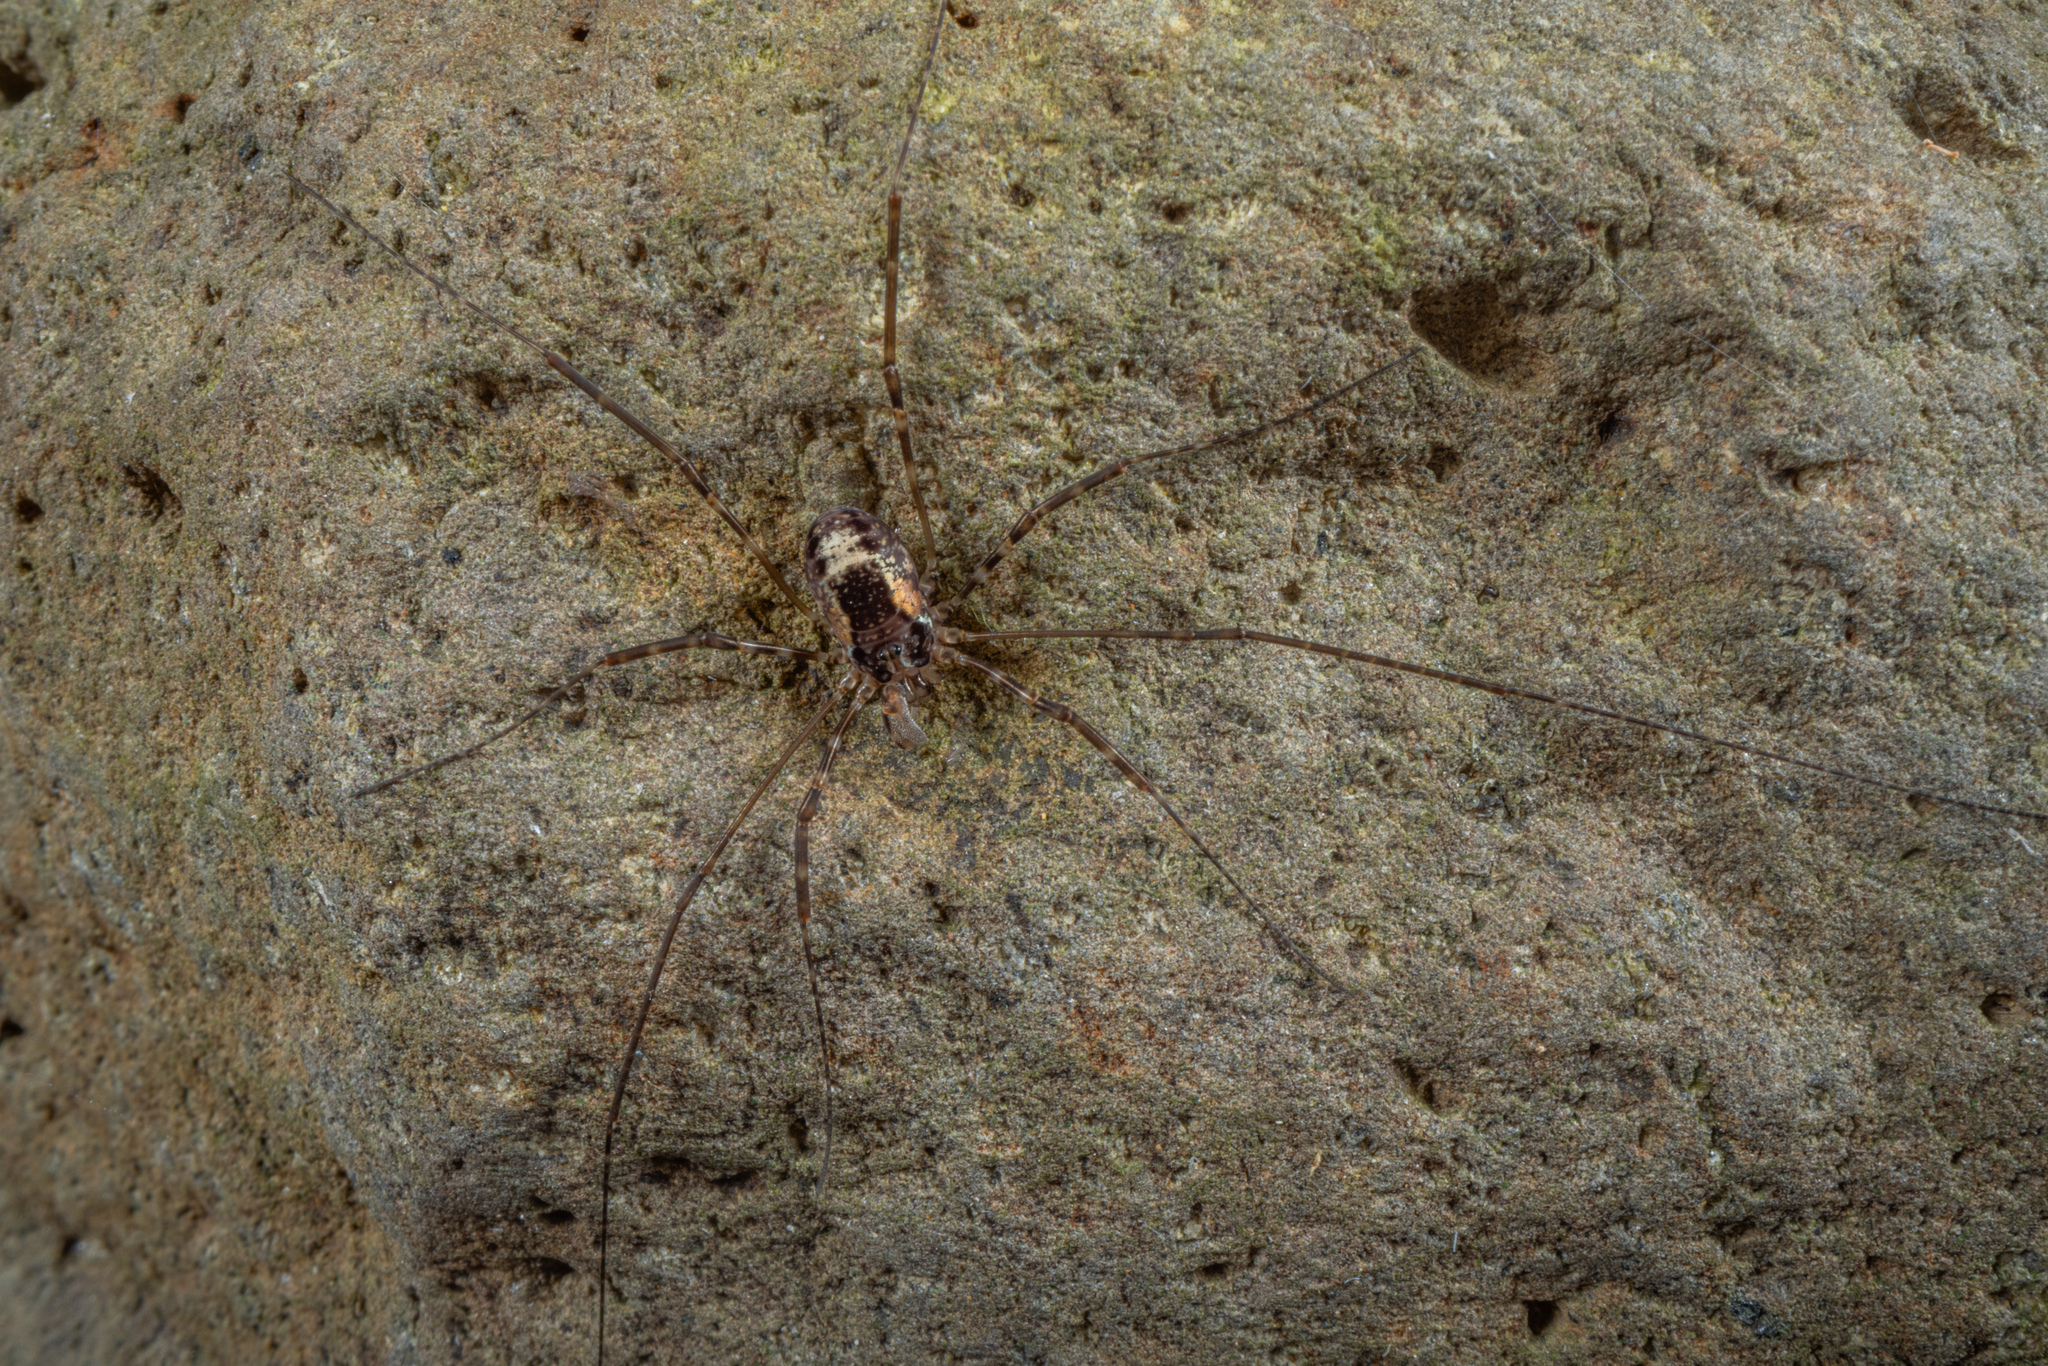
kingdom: Animalia
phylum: Arthropoda
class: Arachnida
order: Opiliones
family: Neopilionidae
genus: Megalopsalis
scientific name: Megalopsalis triascuta
